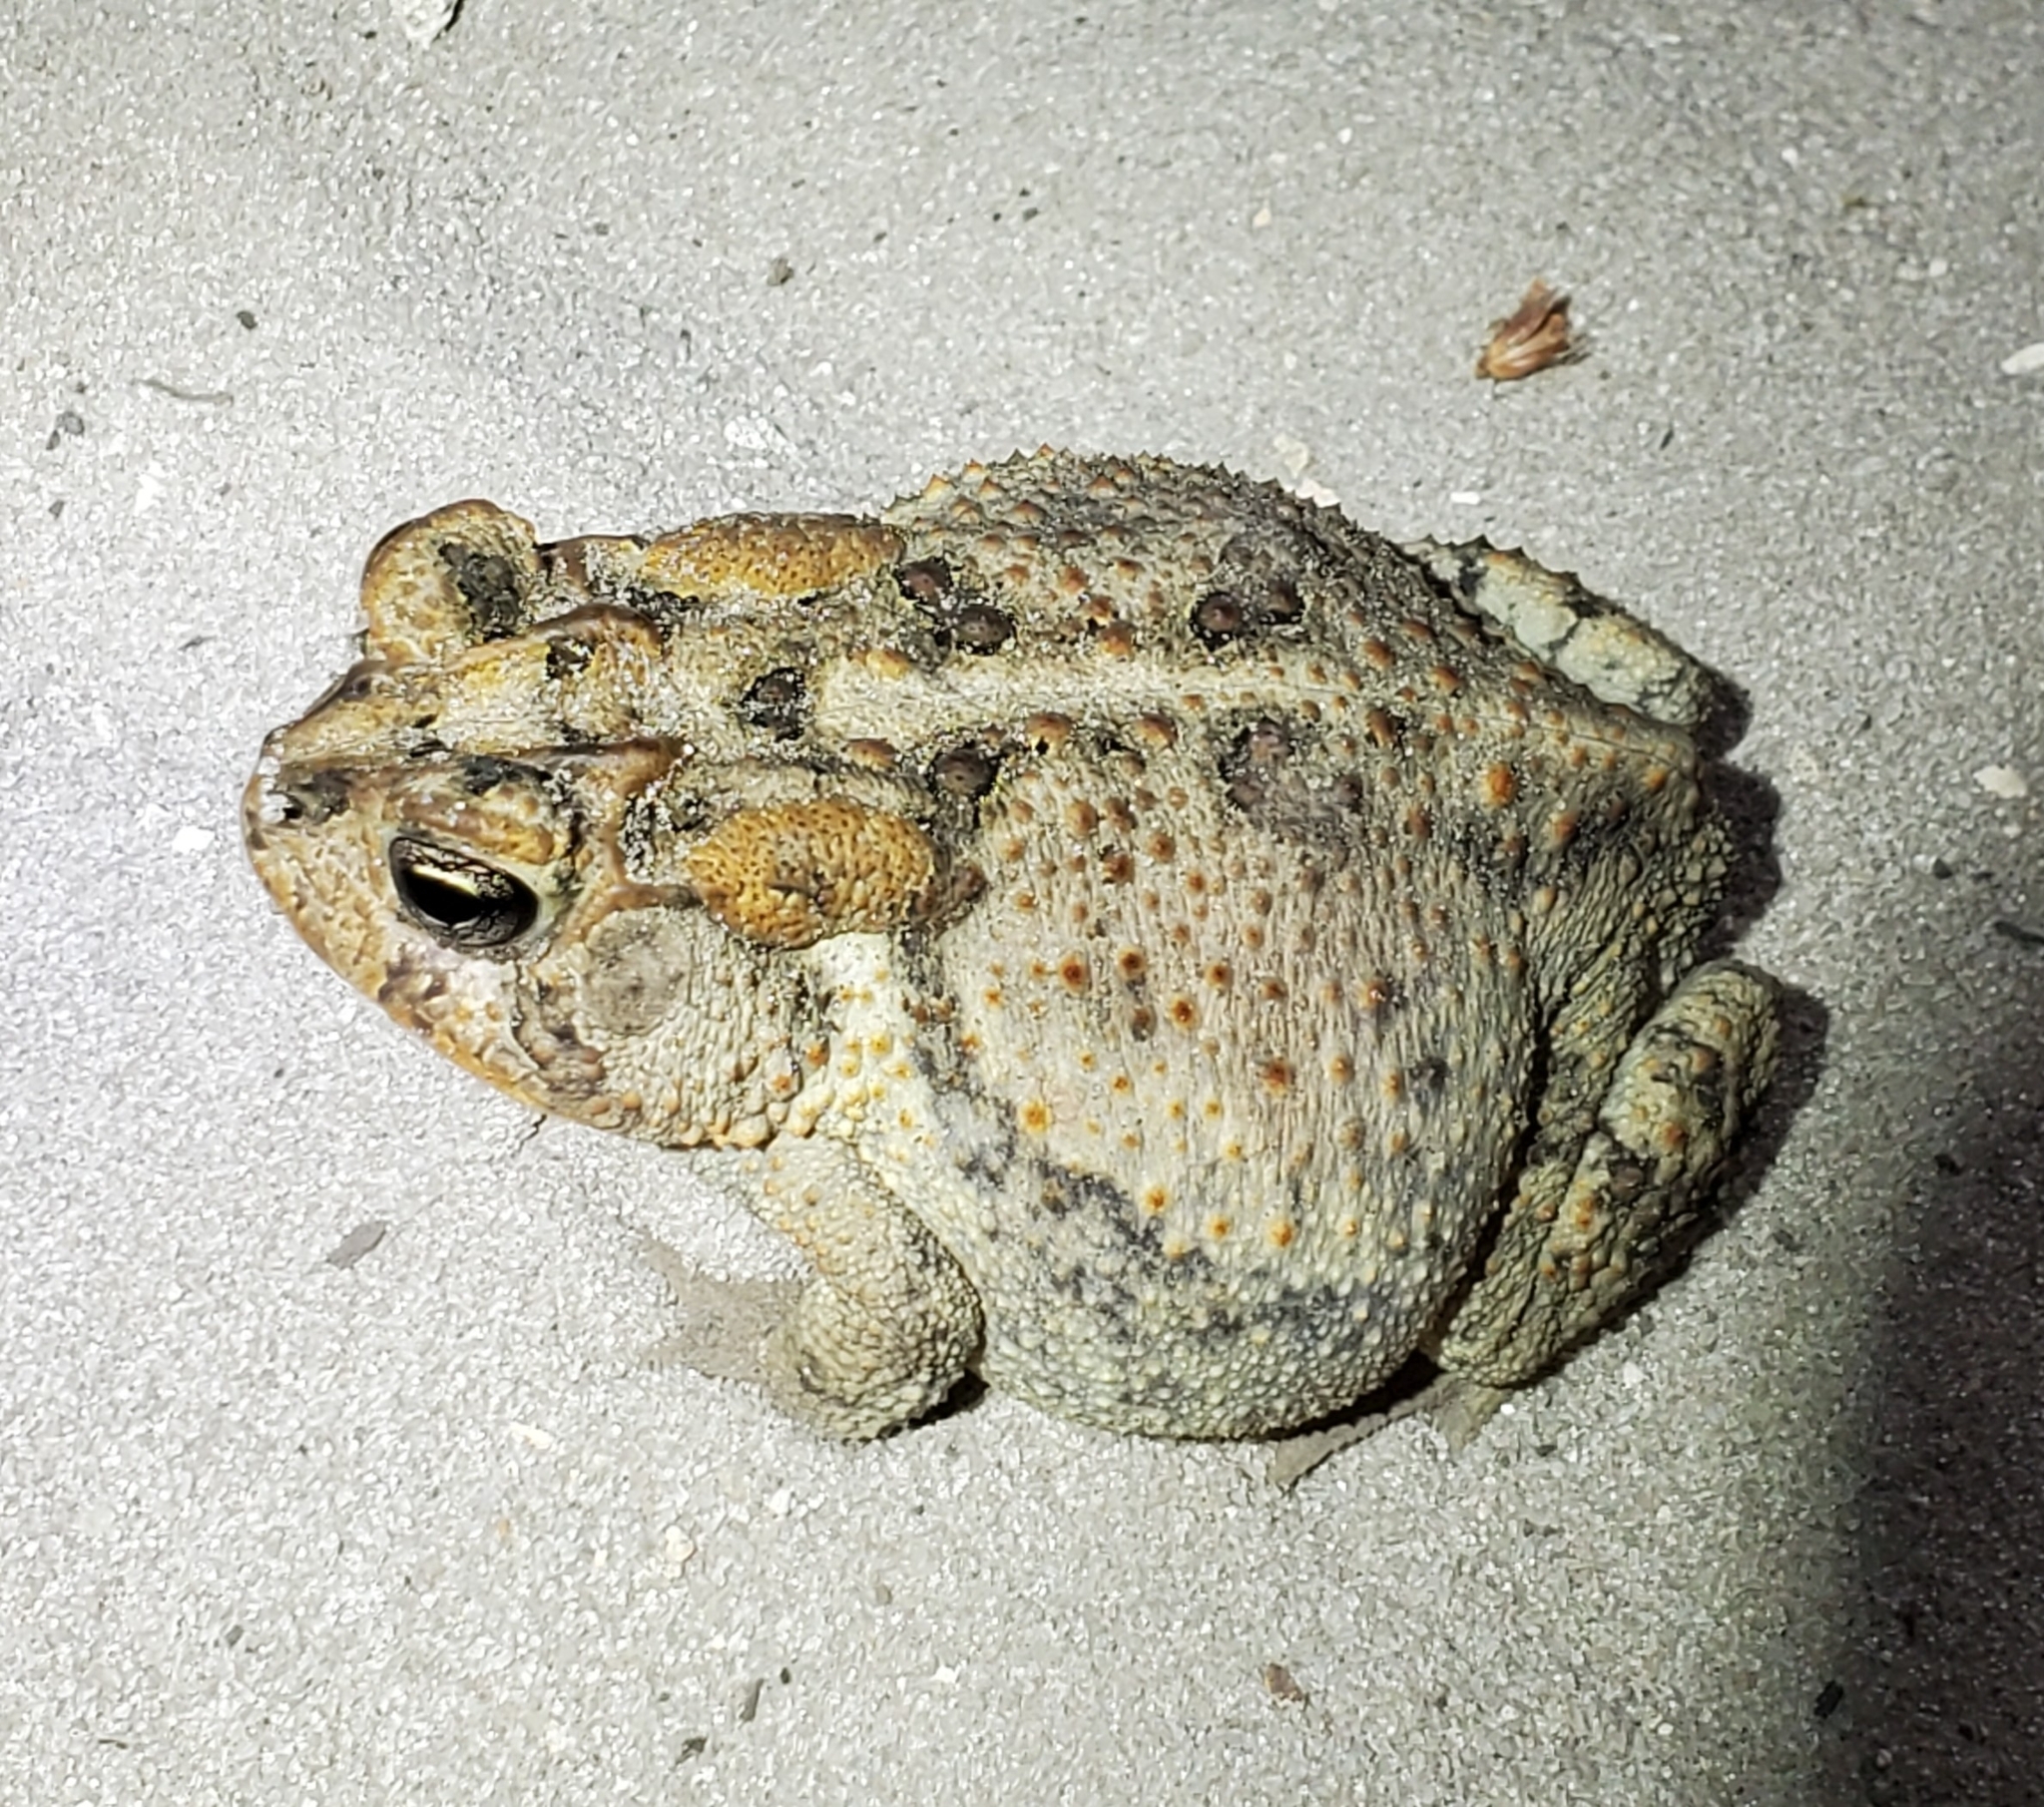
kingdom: Animalia
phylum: Chordata
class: Amphibia
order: Anura
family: Bufonidae
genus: Anaxyrus
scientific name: Anaxyrus terrestris
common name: Southern toad
